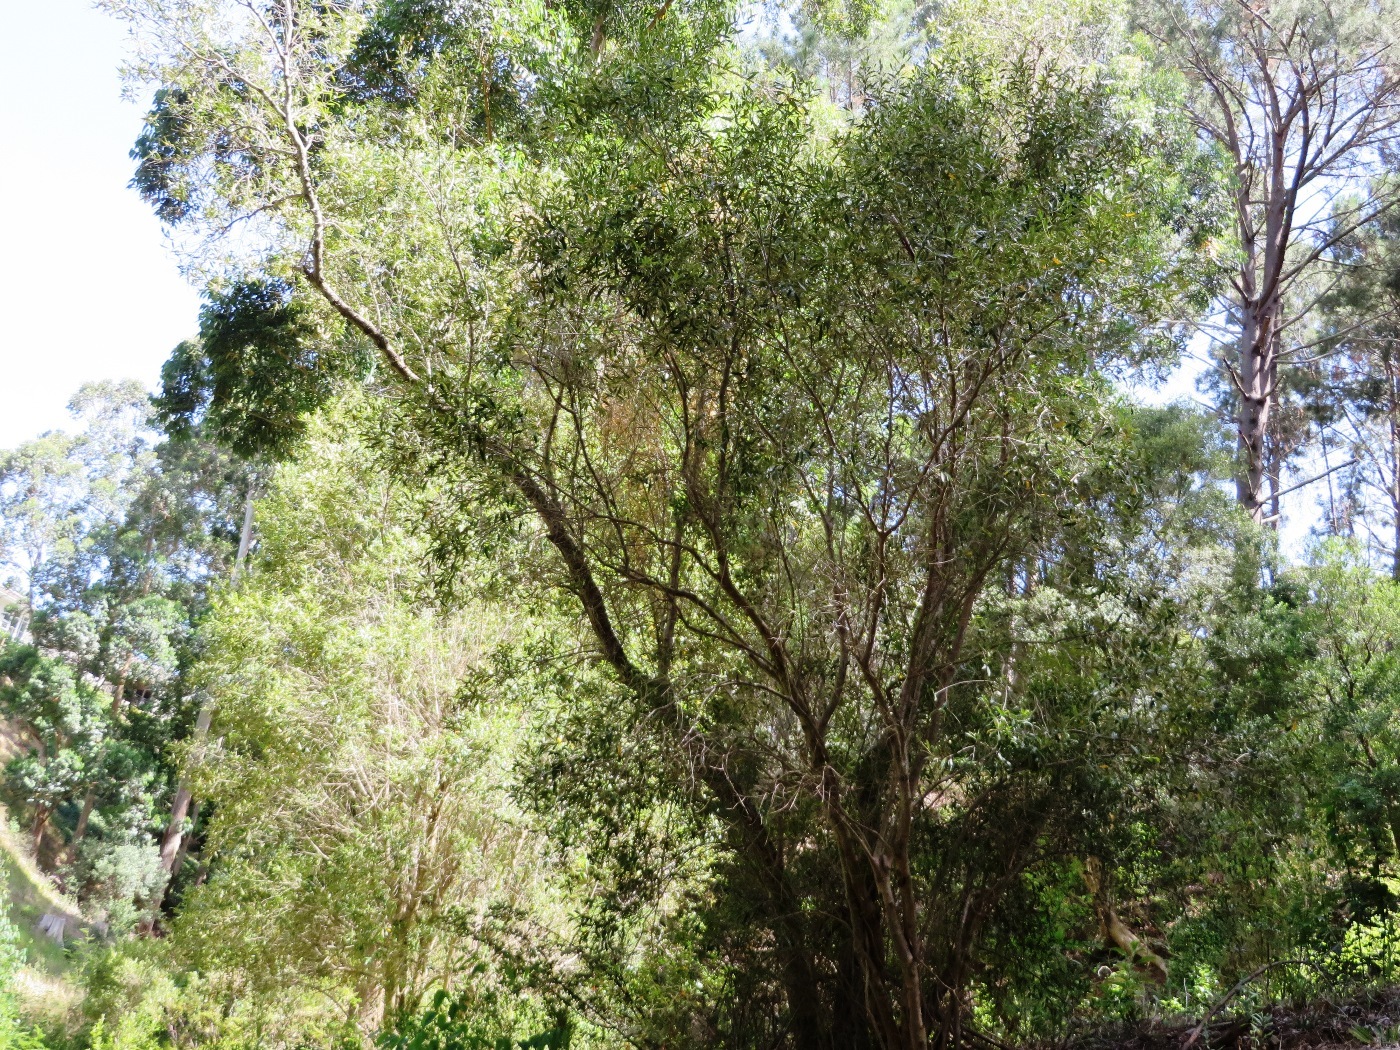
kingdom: Plantae
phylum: Tracheophyta
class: Magnoliopsida
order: Lamiales
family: Oleaceae
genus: Olea
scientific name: Olea europaea
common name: Olive
